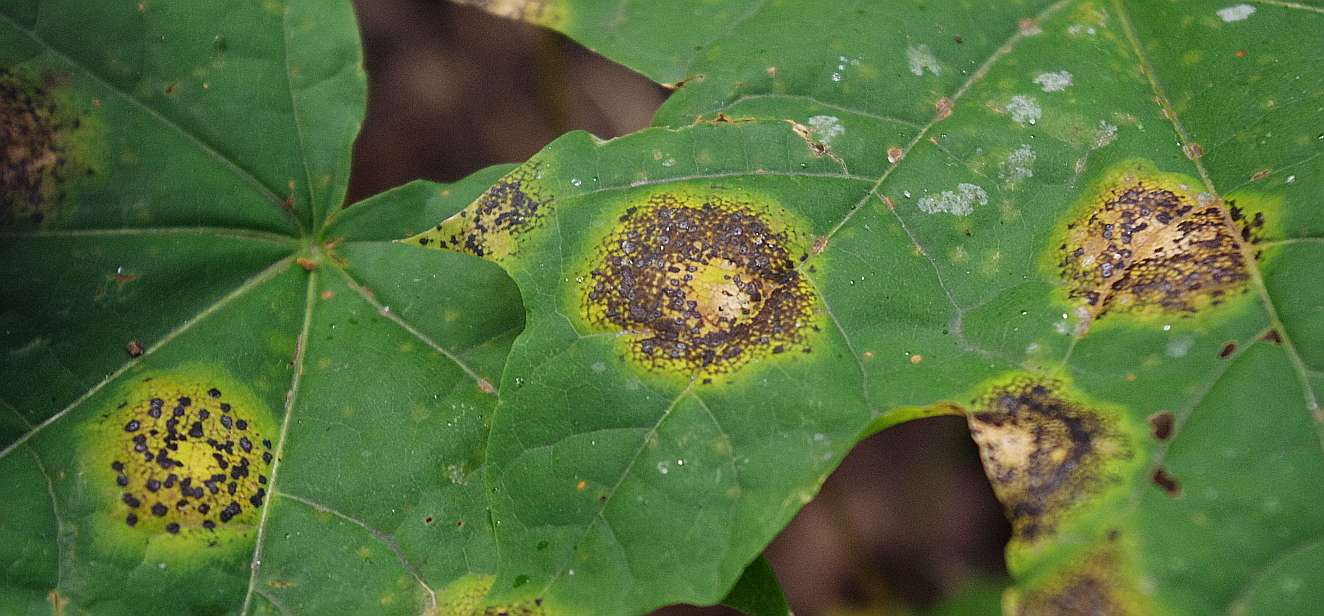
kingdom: Fungi
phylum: Ascomycota
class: Leotiomycetes
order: Rhytismatales
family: Rhytismataceae
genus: Rhytisma
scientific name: Rhytisma punctatum
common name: Speckled tar spot
